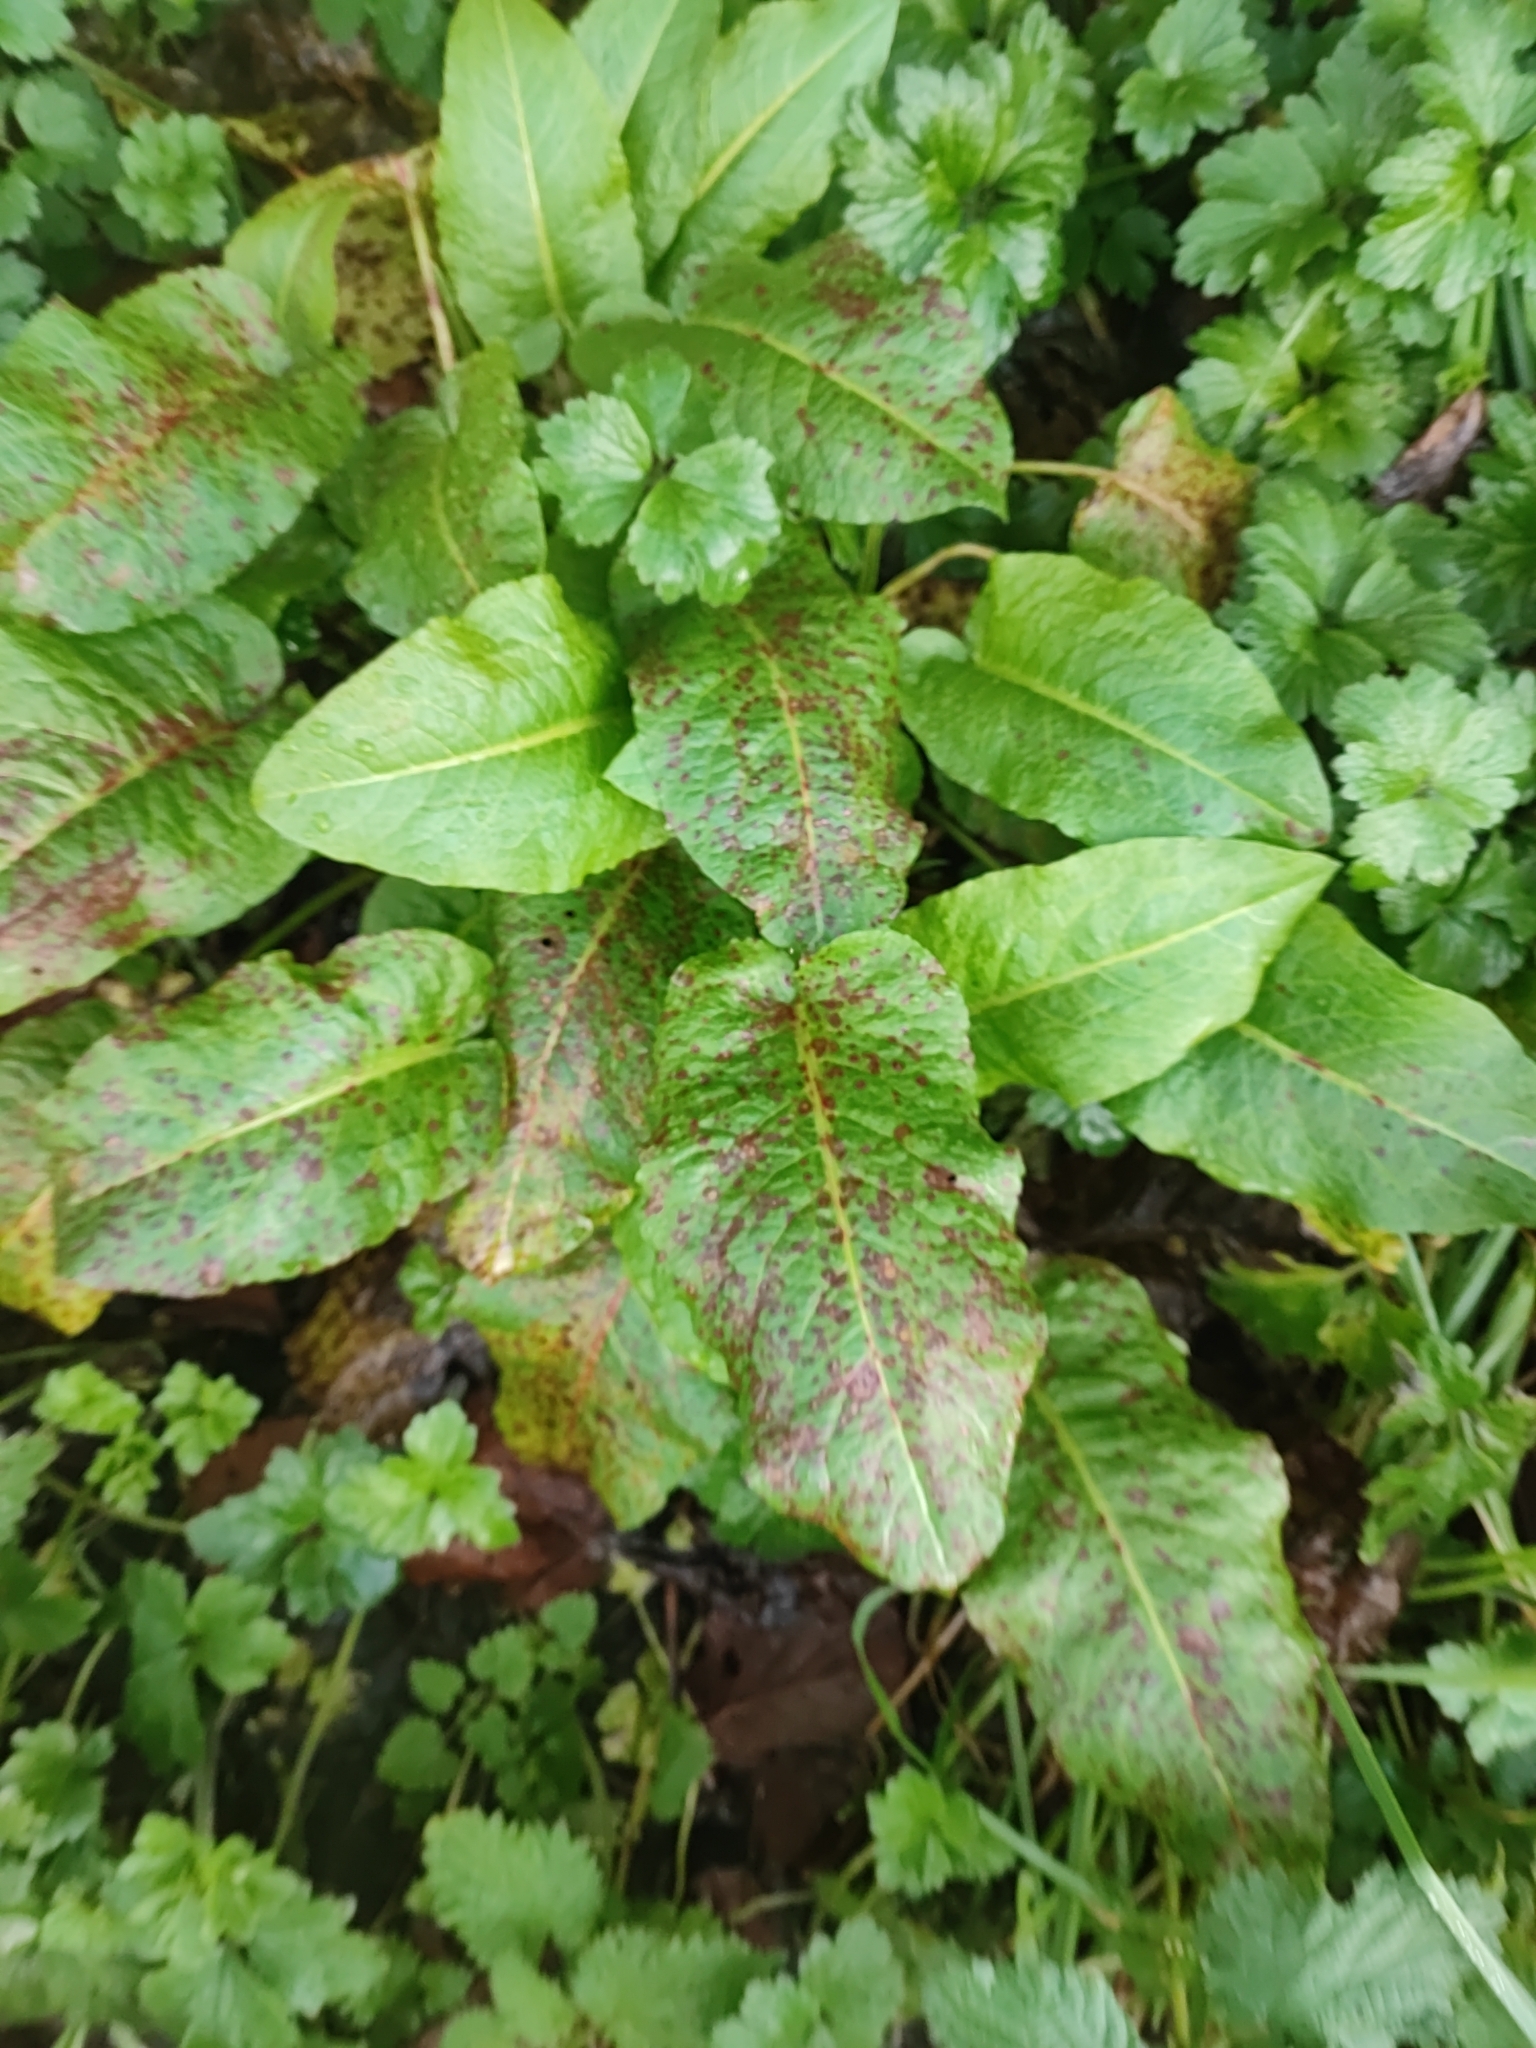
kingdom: Plantae
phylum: Tracheophyta
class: Magnoliopsida
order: Caryophyllales
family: Polygonaceae
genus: Rumex
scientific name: Rumex obtusifolius
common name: Bitter dock
